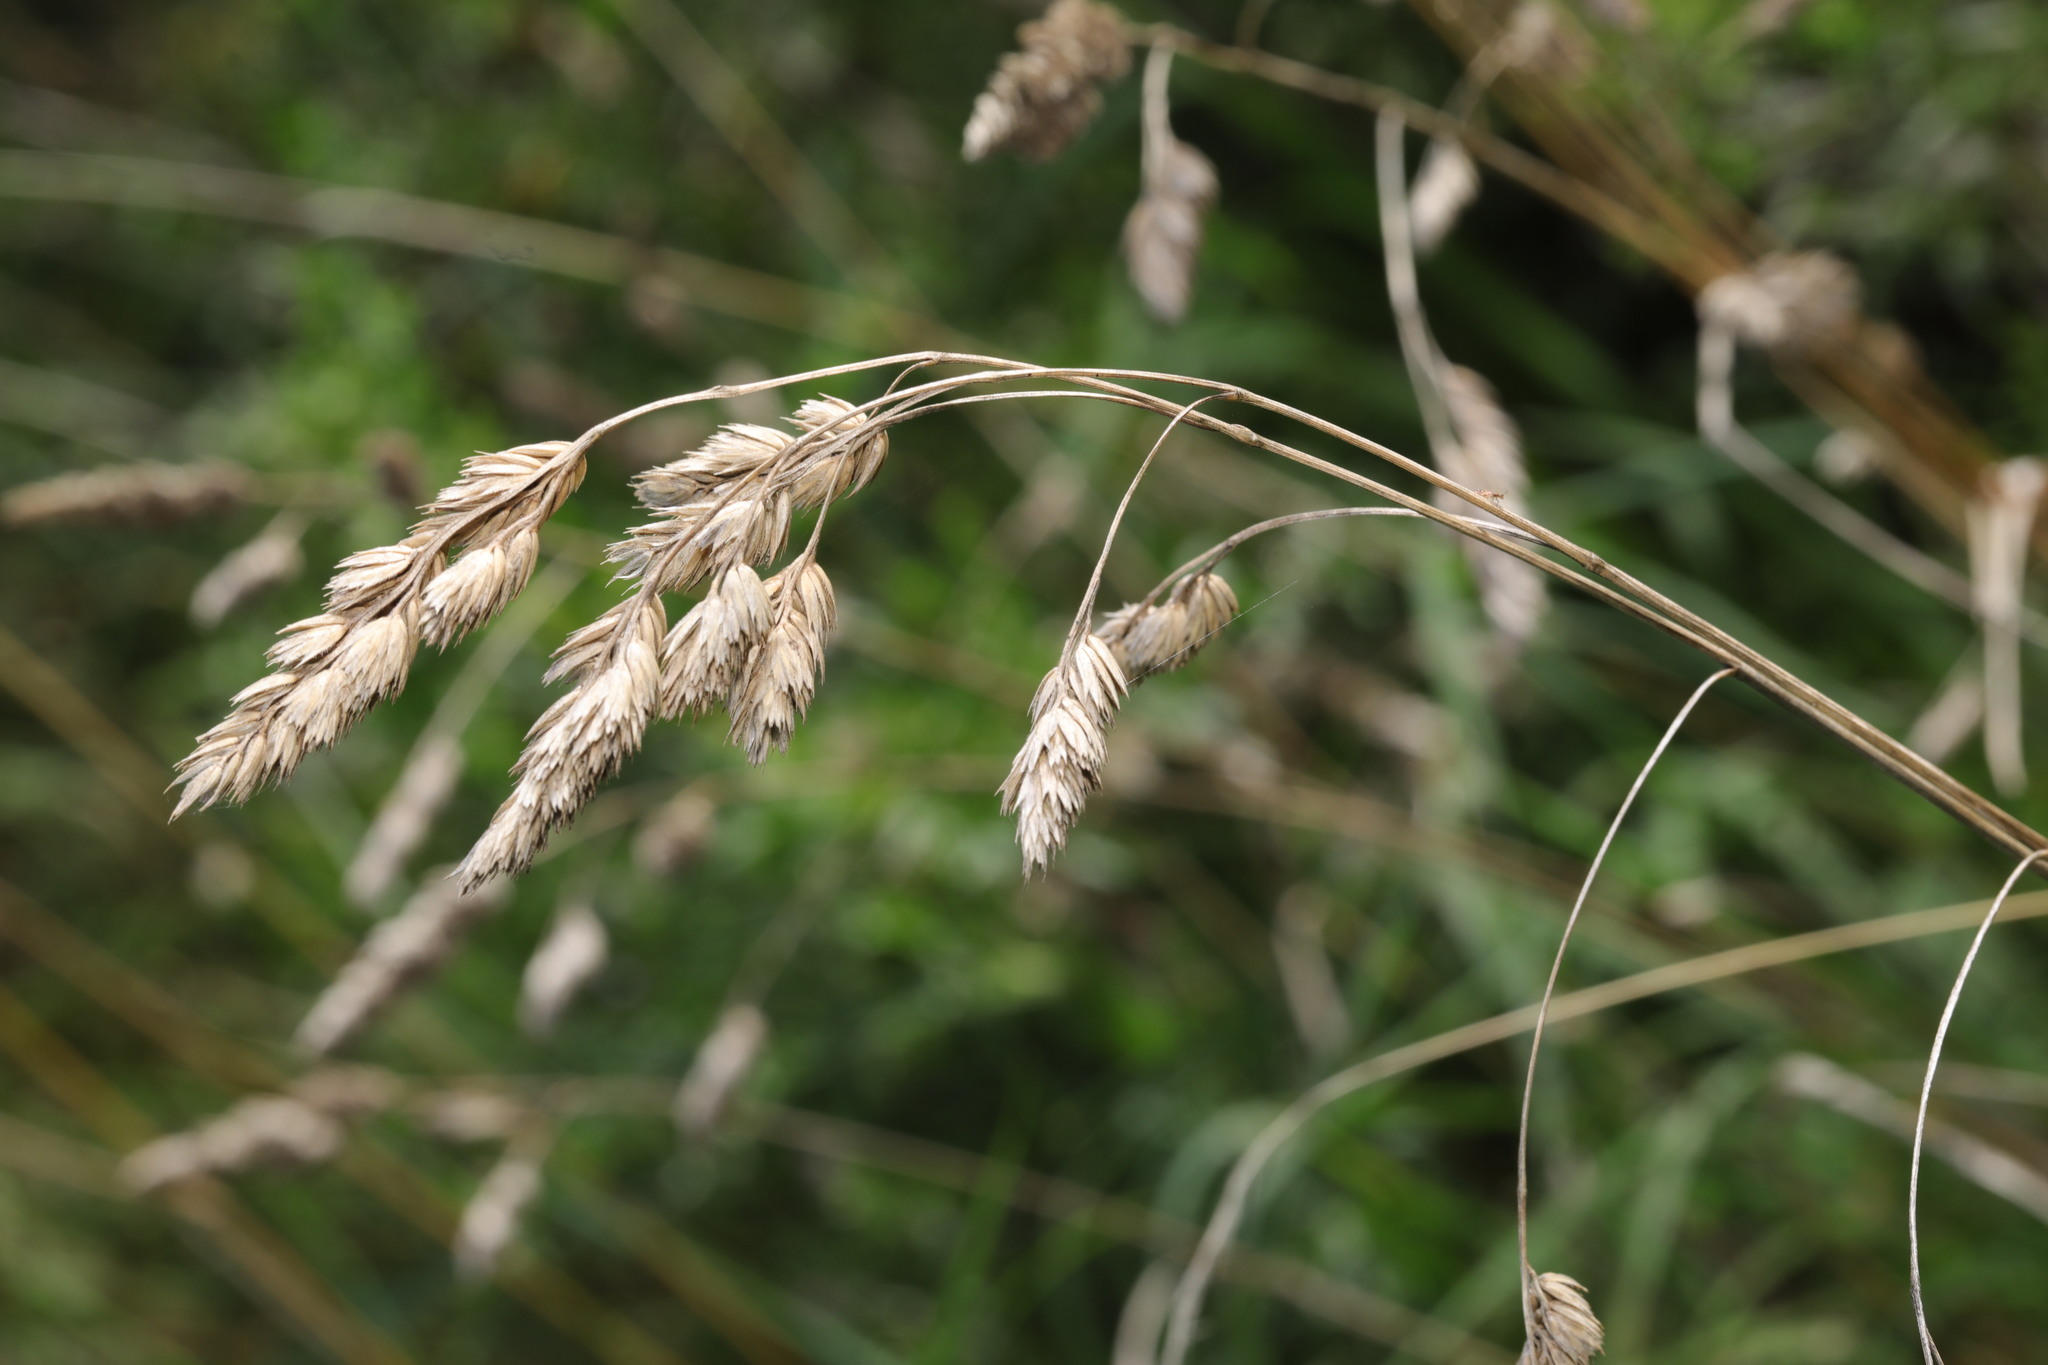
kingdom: Plantae
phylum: Tracheophyta
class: Liliopsida
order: Poales
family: Poaceae
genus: Dactylis
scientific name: Dactylis glomerata
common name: Orchardgrass
